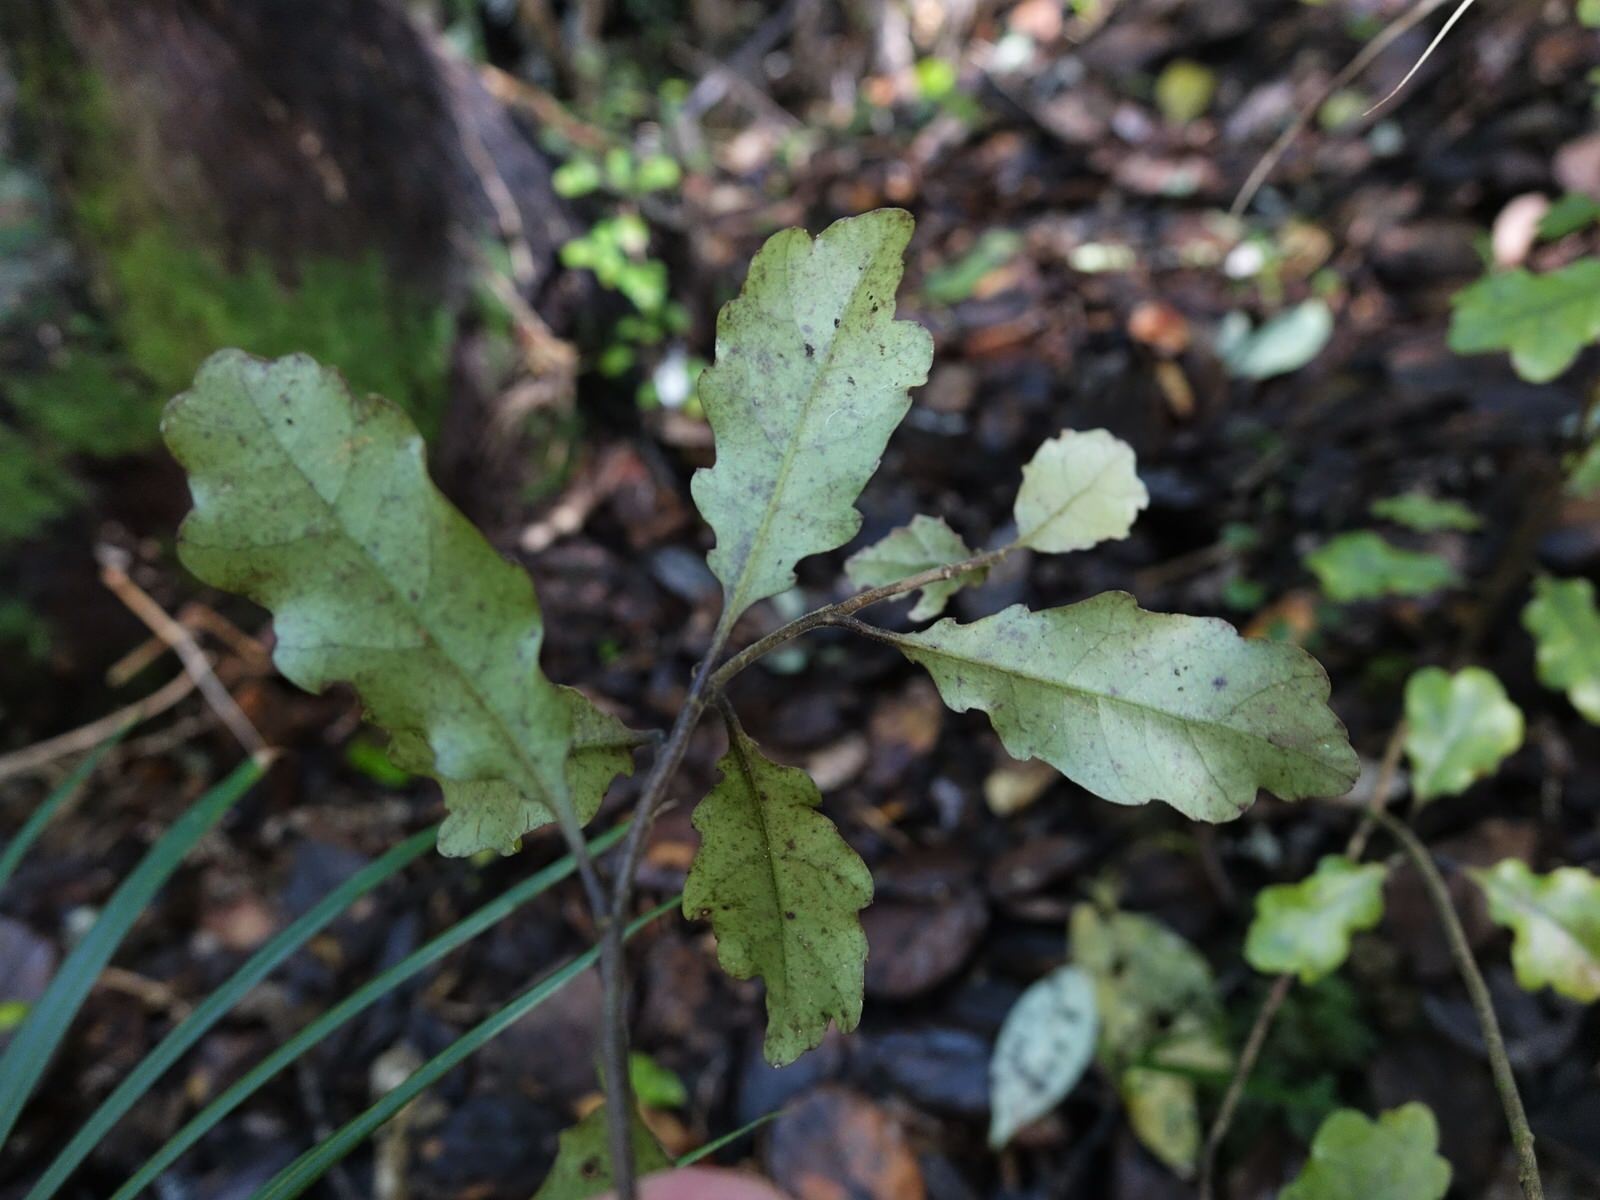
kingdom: Plantae
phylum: Tracheophyta
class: Magnoliopsida
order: Asterales
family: Alseuosmiaceae
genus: Alseuosmia
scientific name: Alseuosmia quercifolia
